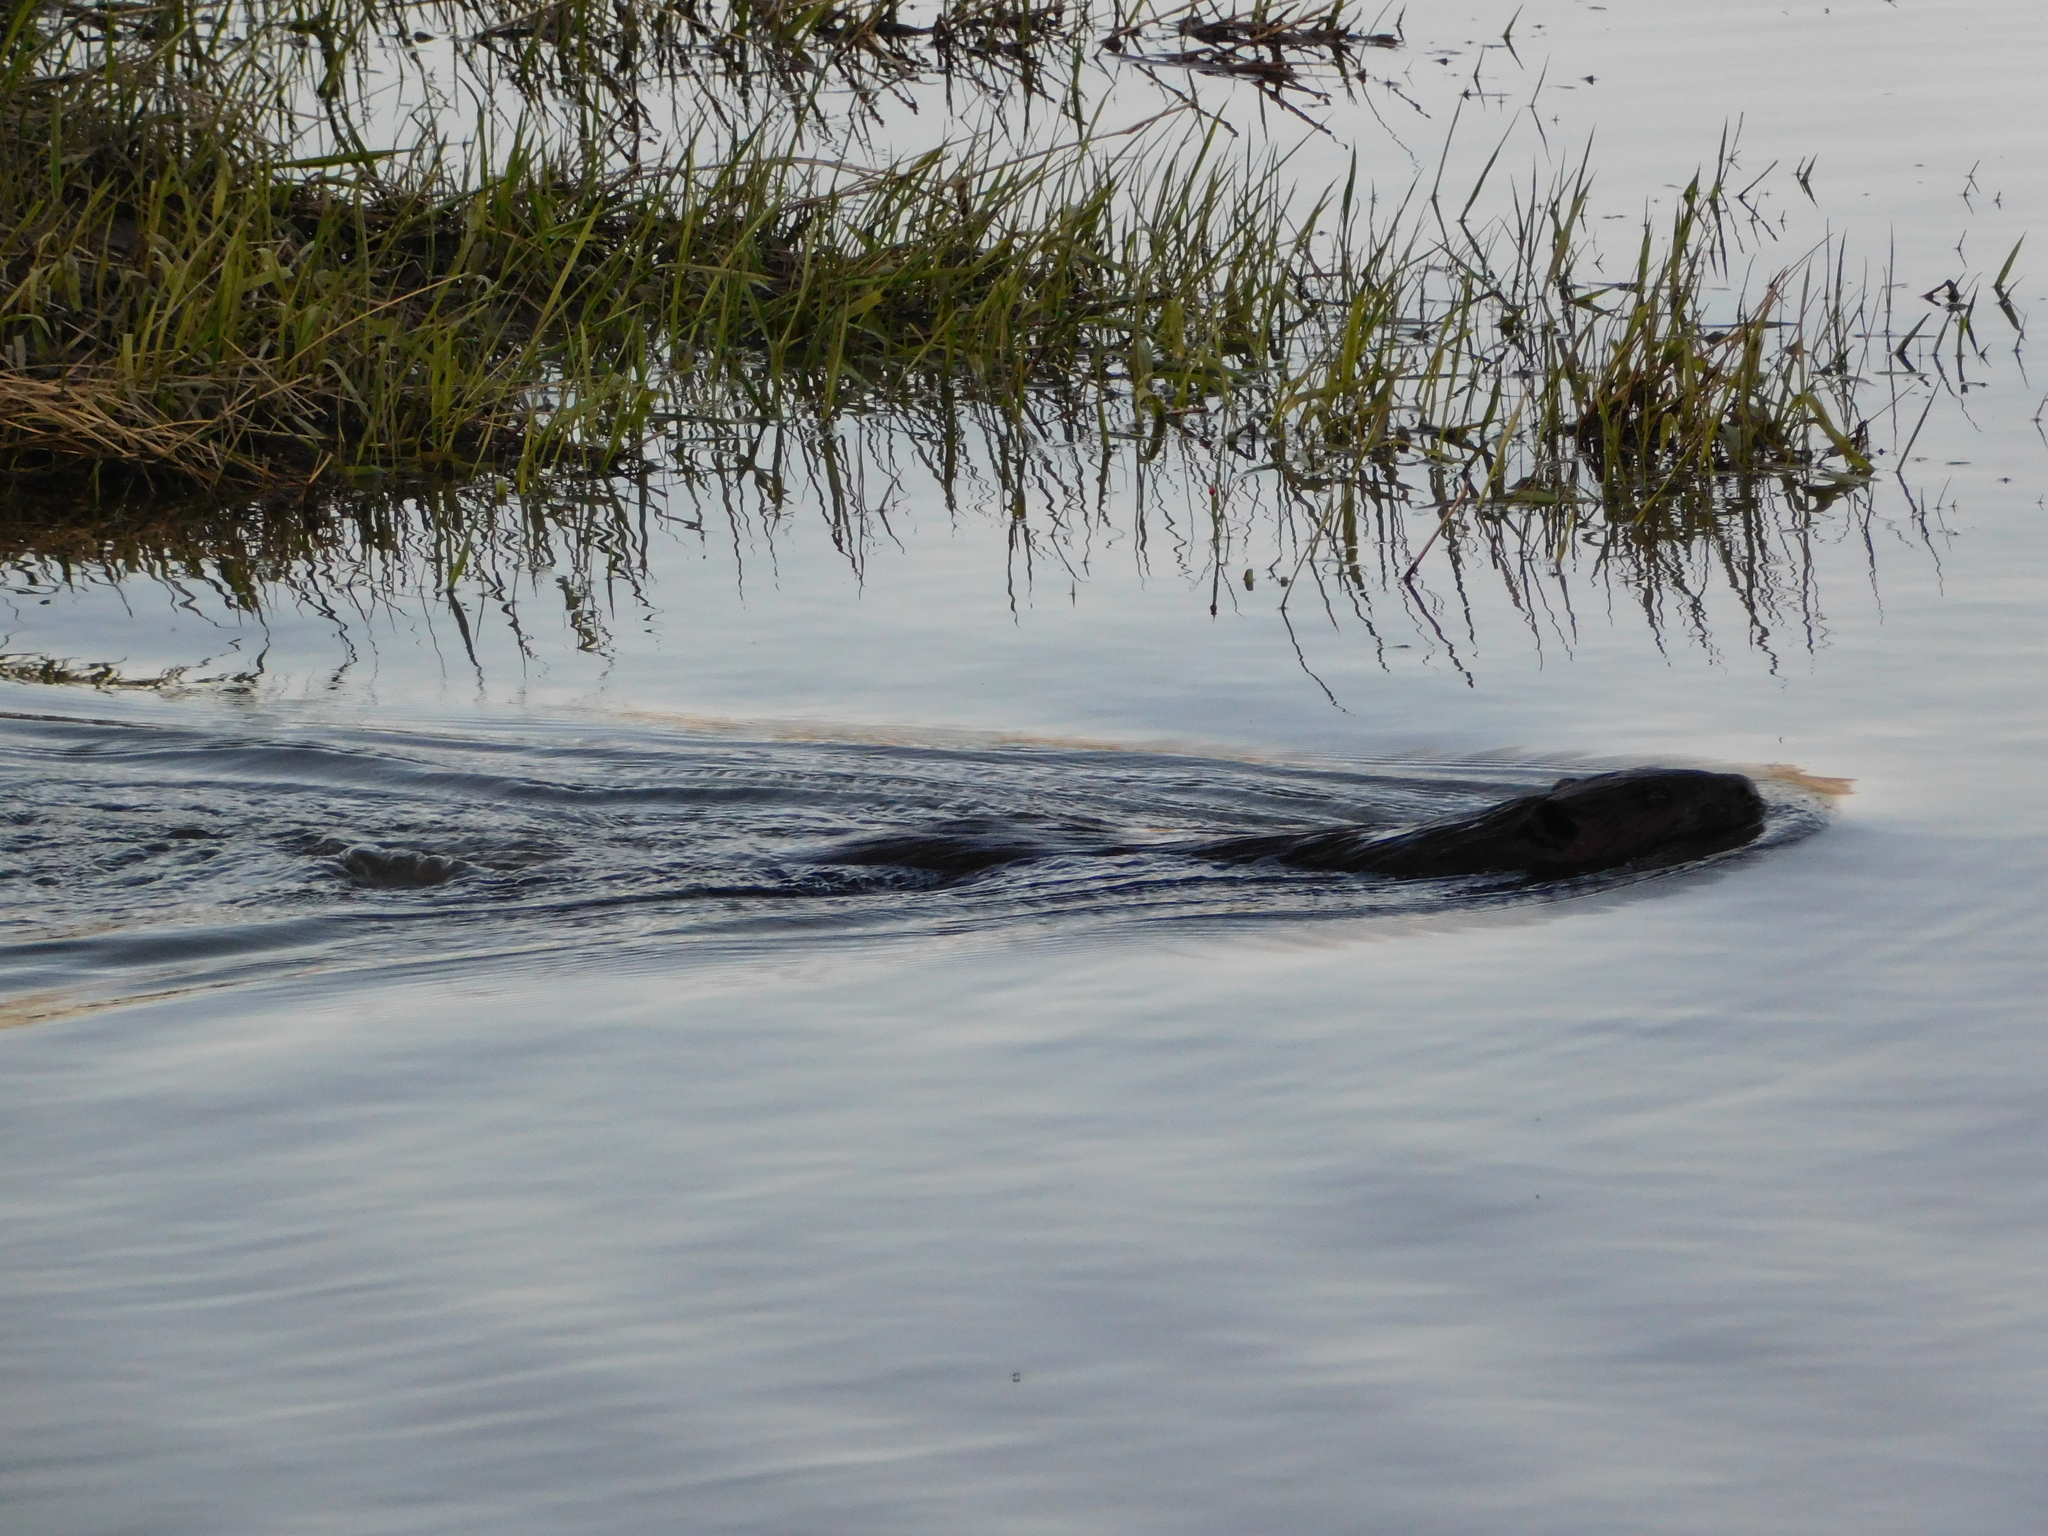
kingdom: Animalia
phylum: Chordata
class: Mammalia
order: Rodentia
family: Castoridae
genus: Castor
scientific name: Castor canadensis
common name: American beaver
